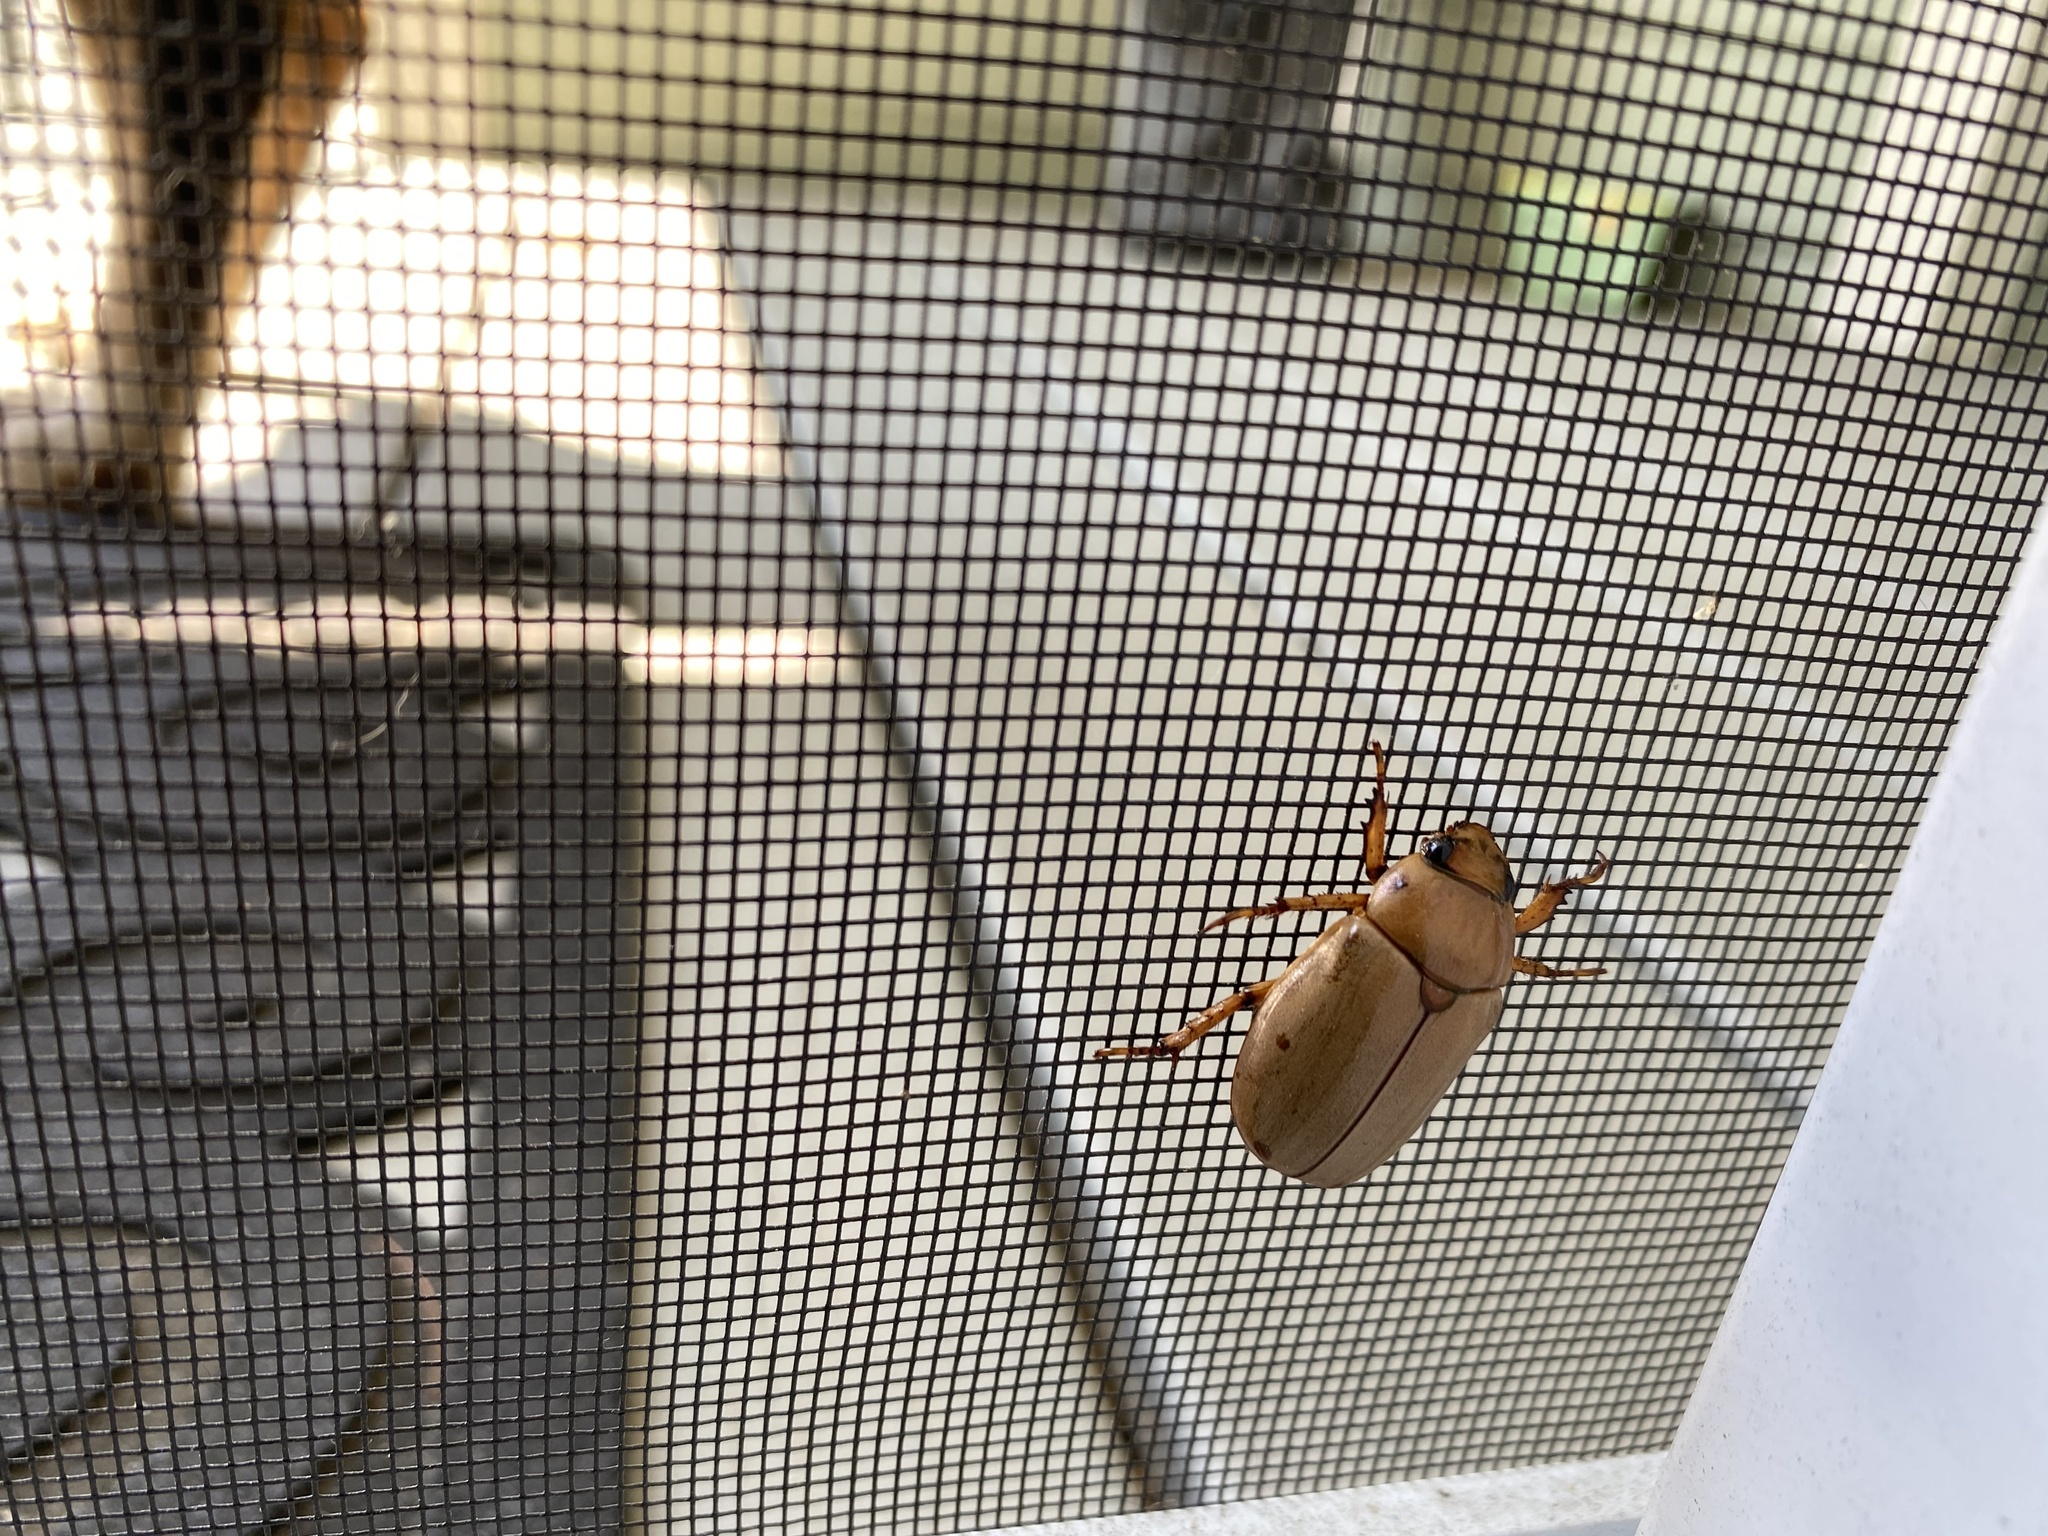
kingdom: Animalia
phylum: Arthropoda
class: Insecta
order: Coleoptera
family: Scarabaeidae
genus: Pelidnota
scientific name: Pelidnota punctata
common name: Grapevine beetle
